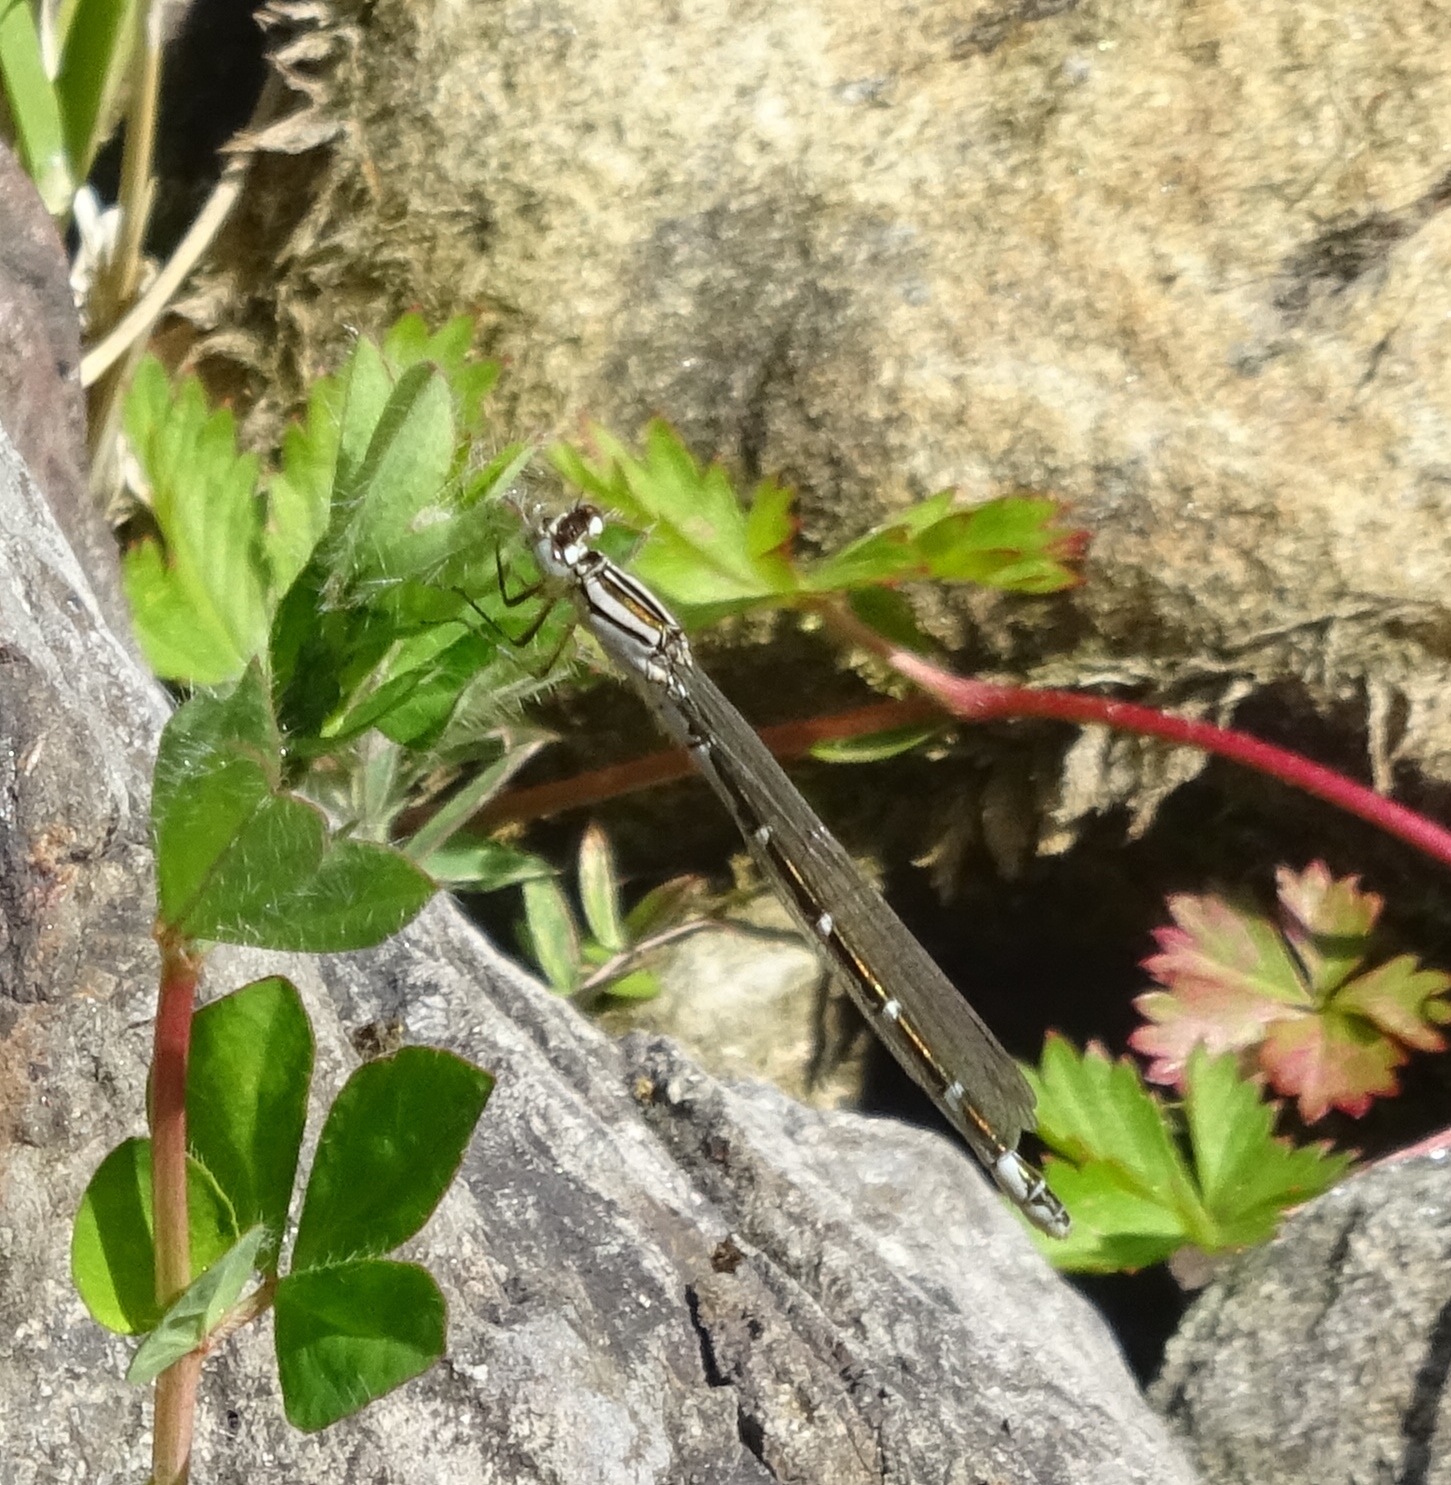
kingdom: Animalia
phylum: Arthropoda
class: Insecta
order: Odonata
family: Coenagrionidae
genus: Enallagma
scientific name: Enallagma cyathigerum
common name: Common blue damselfly
